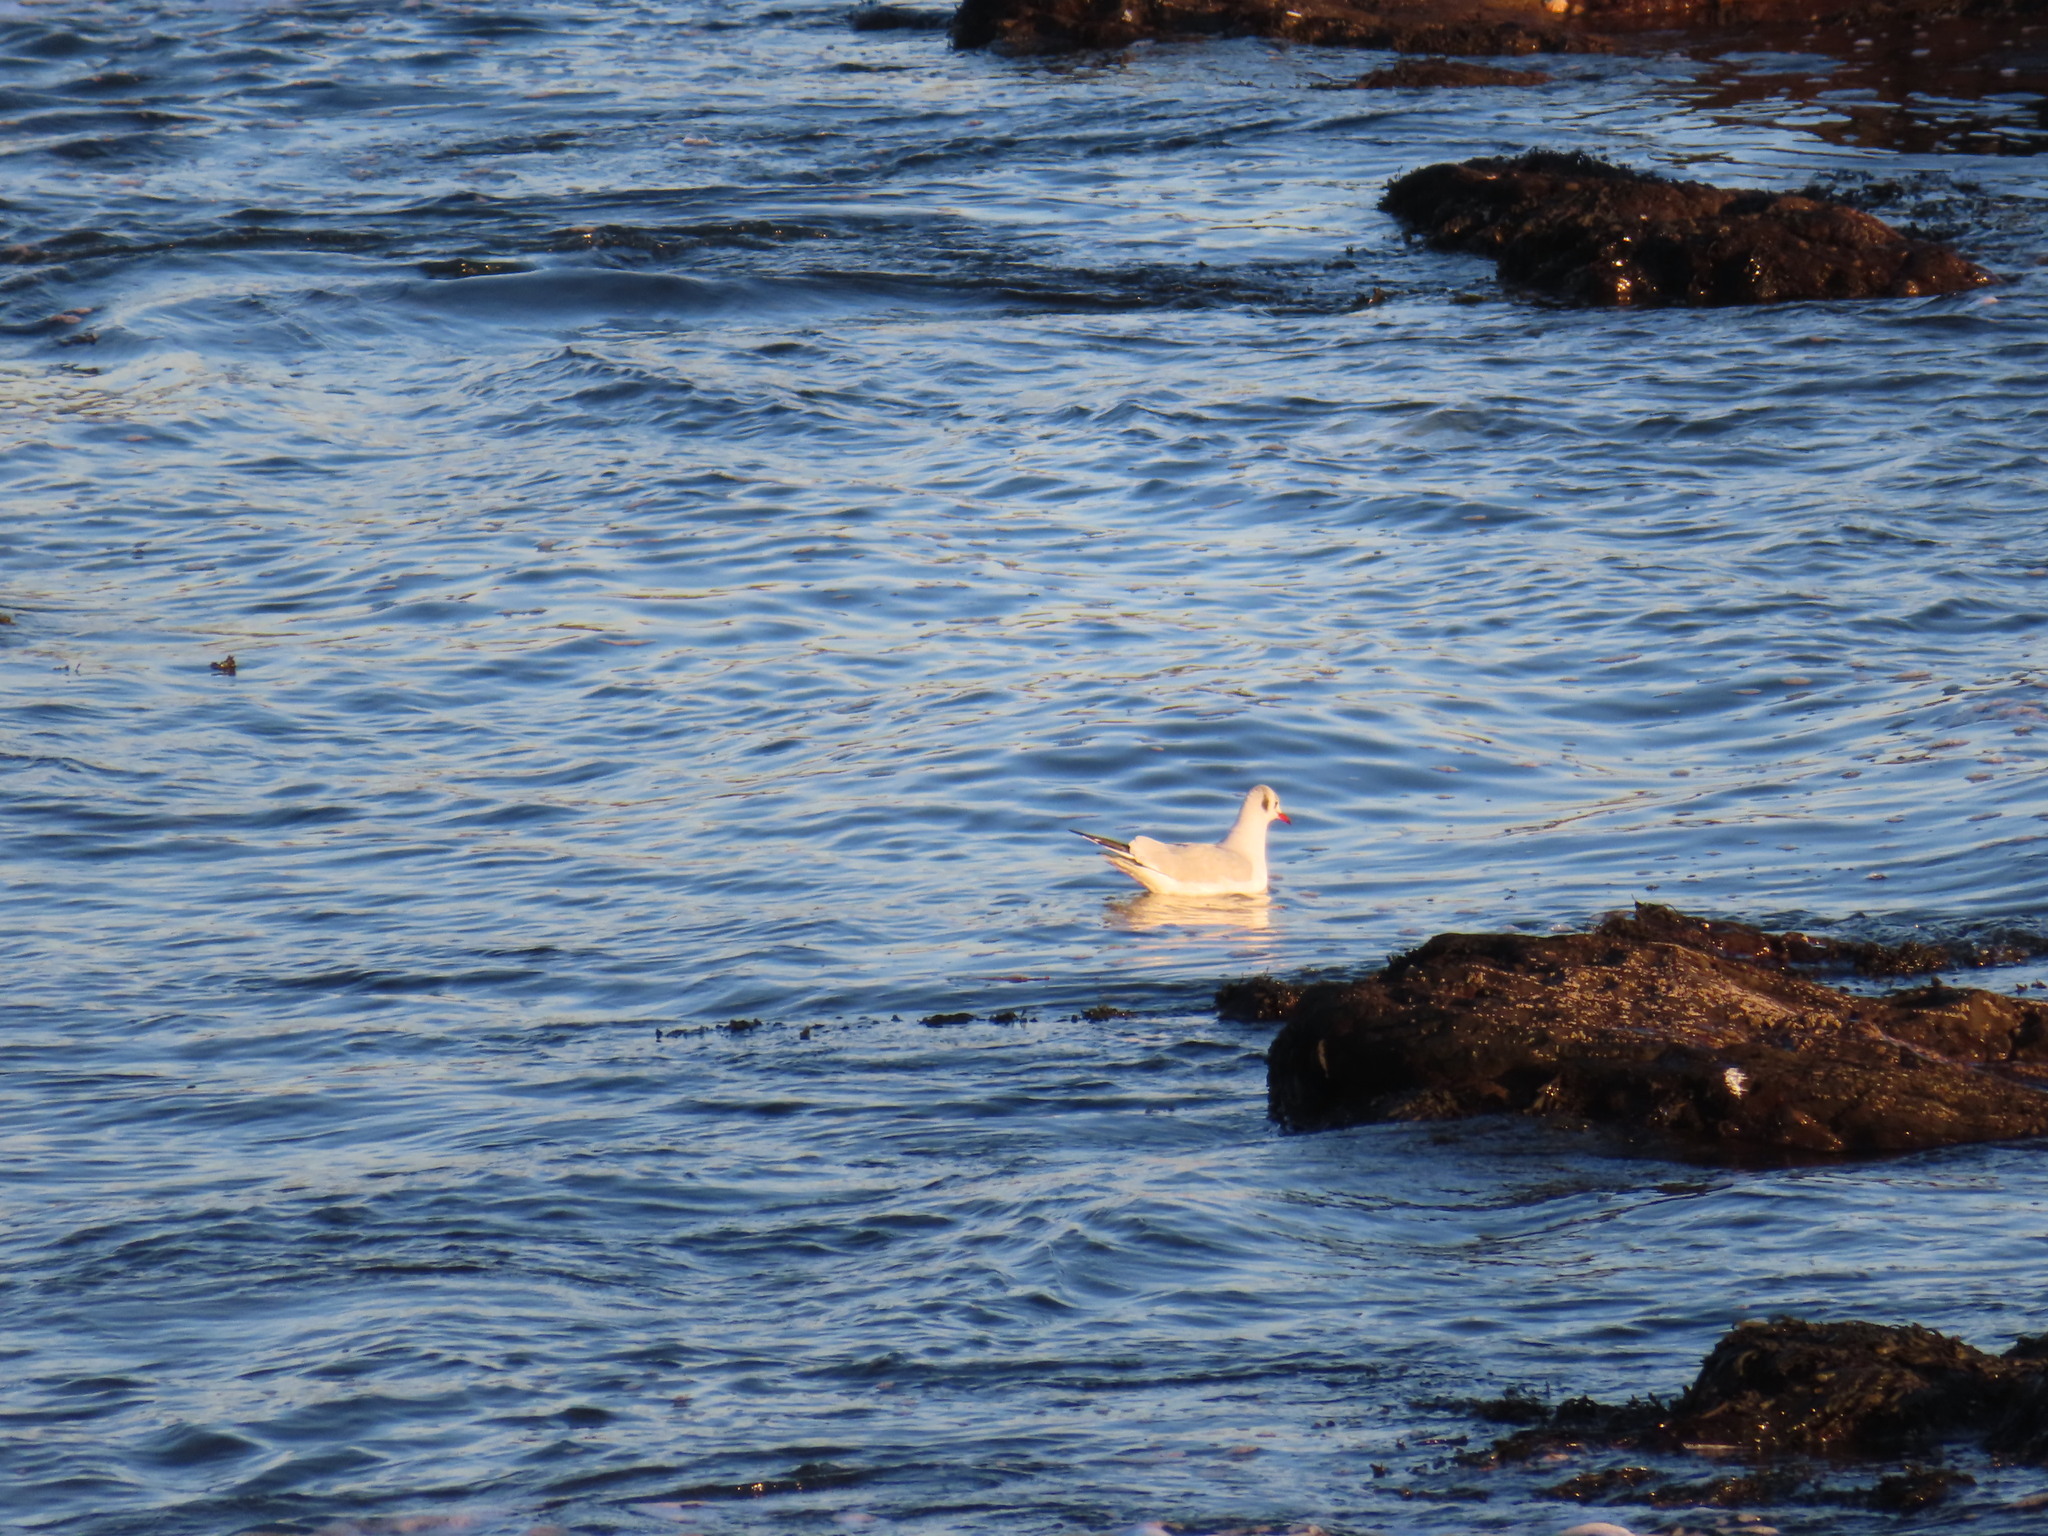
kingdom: Animalia
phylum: Chordata
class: Aves
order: Charadriiformes
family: Laridae
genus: Chroicocephalus
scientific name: Chroicocephalus ridibundus
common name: Black-headed gull
